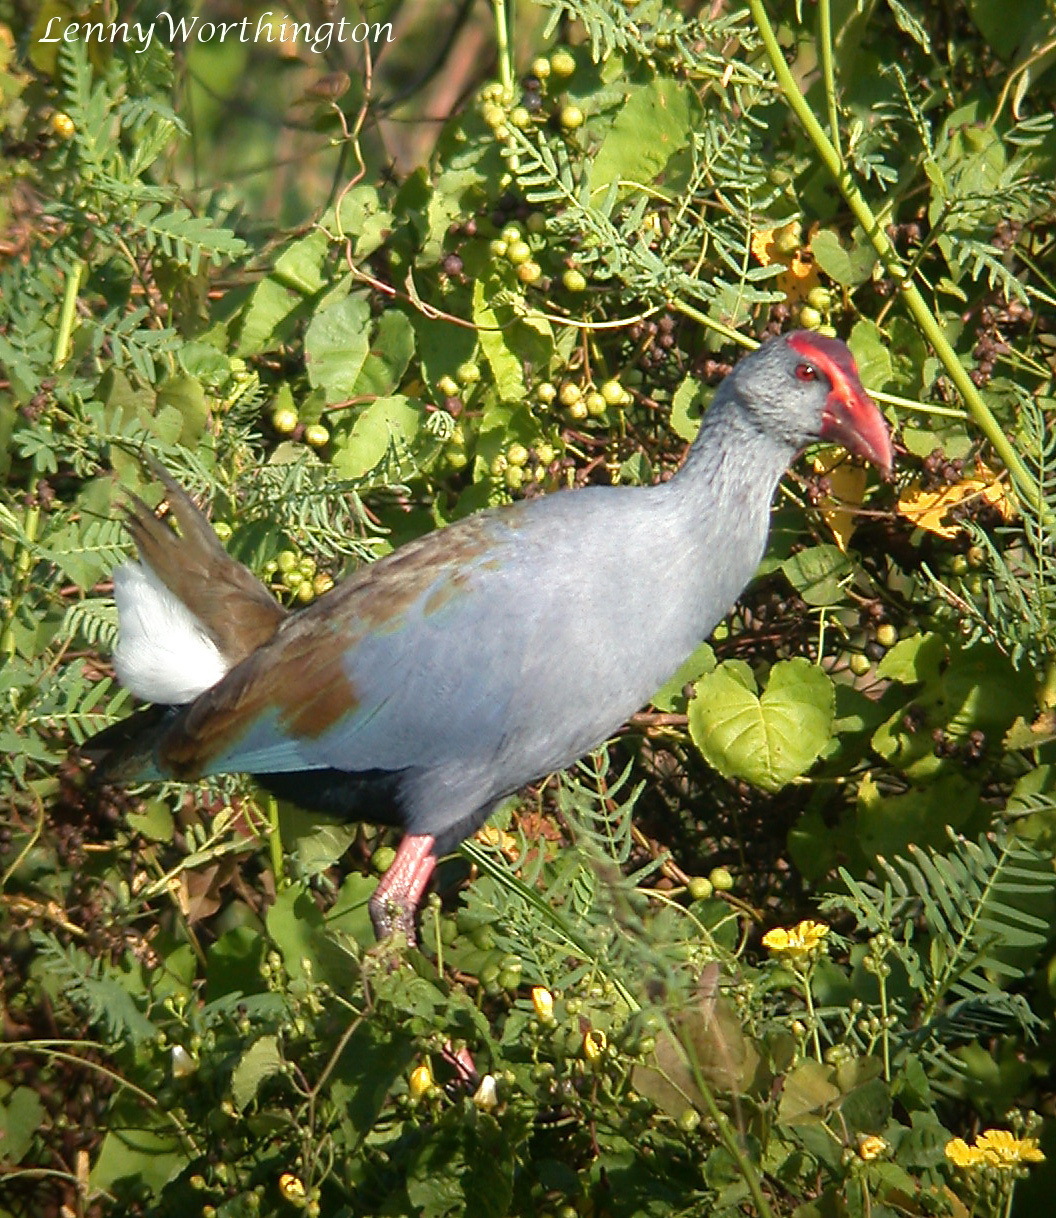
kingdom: Animalia
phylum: Chordata
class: Aves
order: Gruiformes
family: Rallidae
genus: Porphyrio
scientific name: Porphyrio pulverulentus
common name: Philippine swamphen
